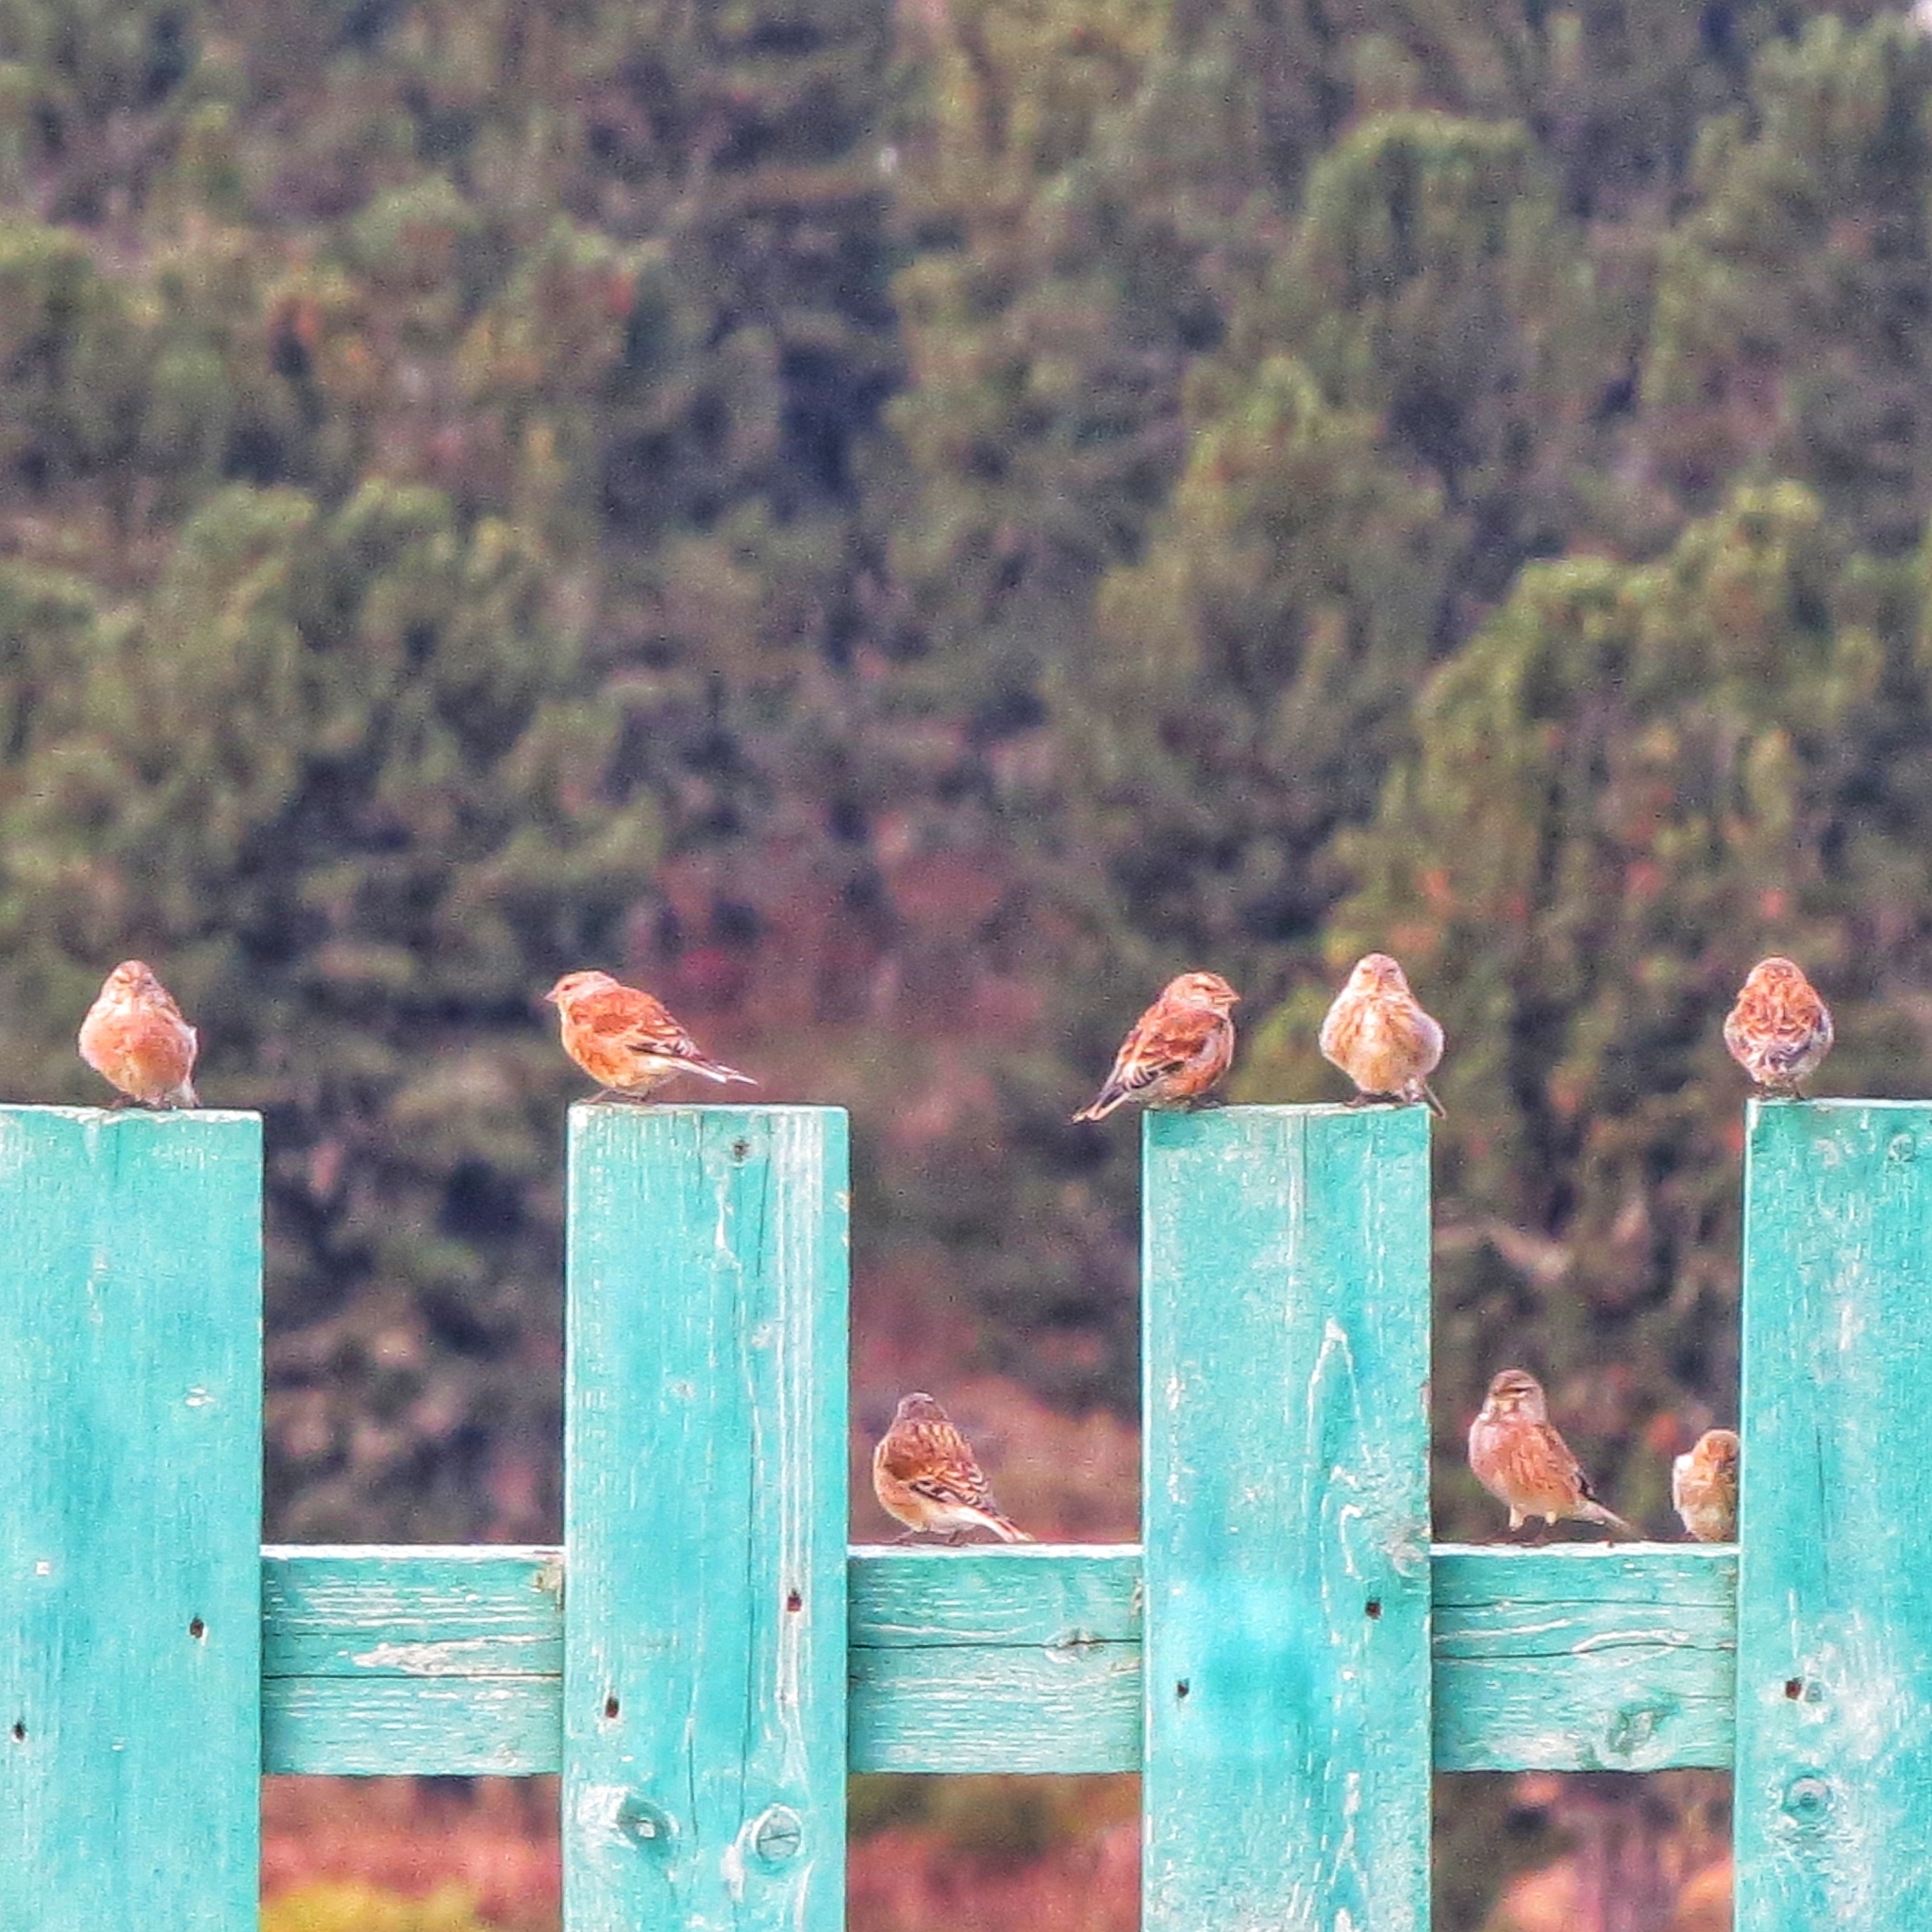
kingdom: Animalia
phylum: Chordata
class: Aves
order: Passeriformes
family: Fringillidae
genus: Linaria
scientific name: Linaria cannabina
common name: Common linnet
